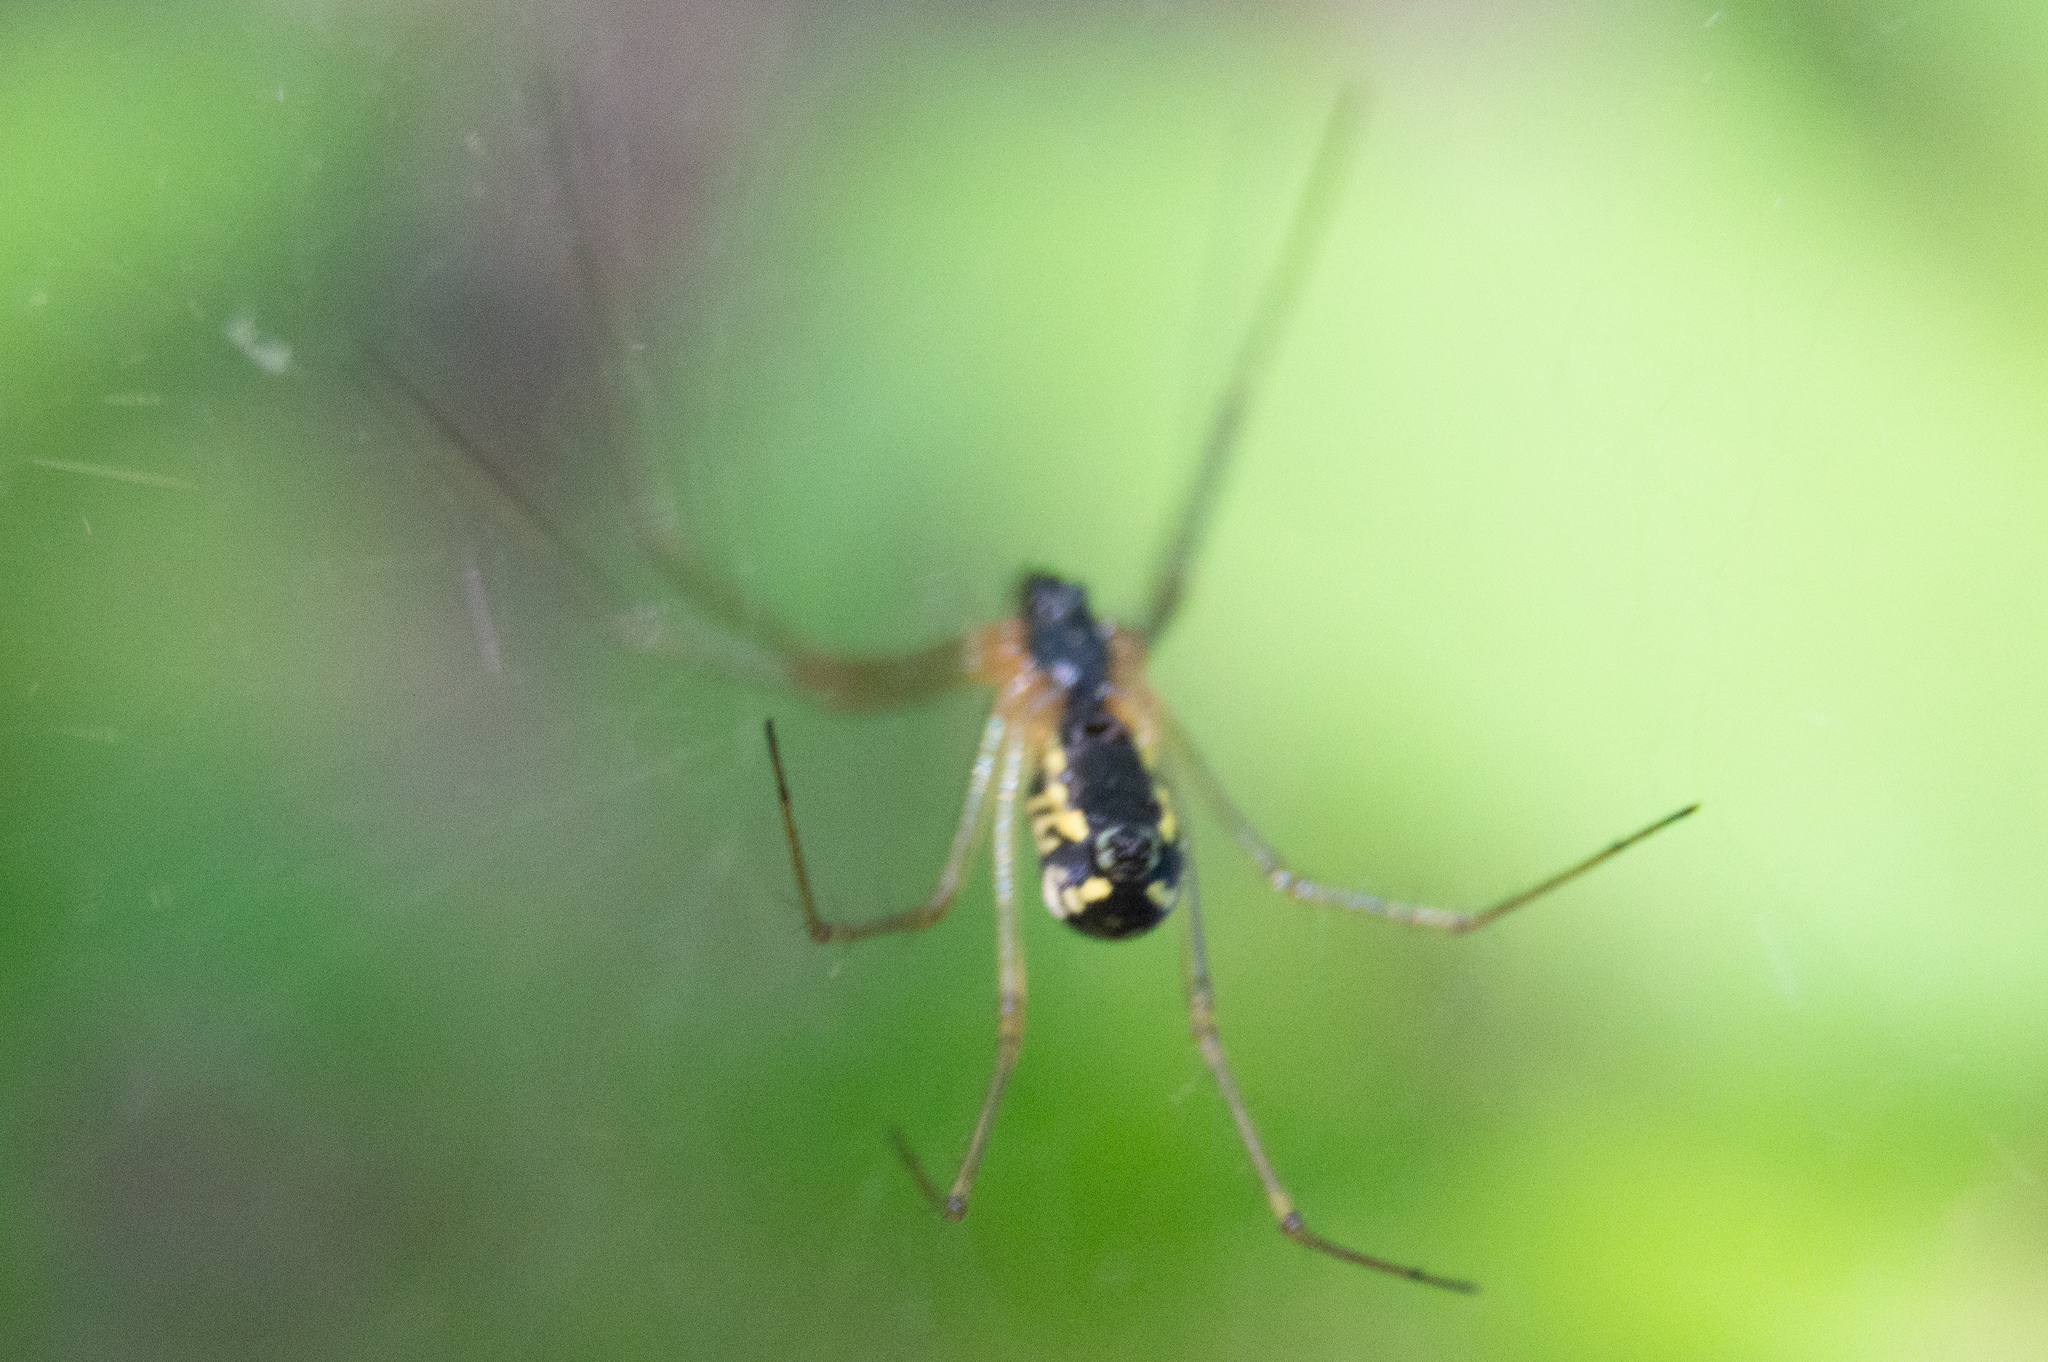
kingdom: Animalia
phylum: Arthropoda
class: Arachnida
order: Araneae
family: Linyphiidae
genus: Neriene
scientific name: Neriene radiata
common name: Filmy dome spider
